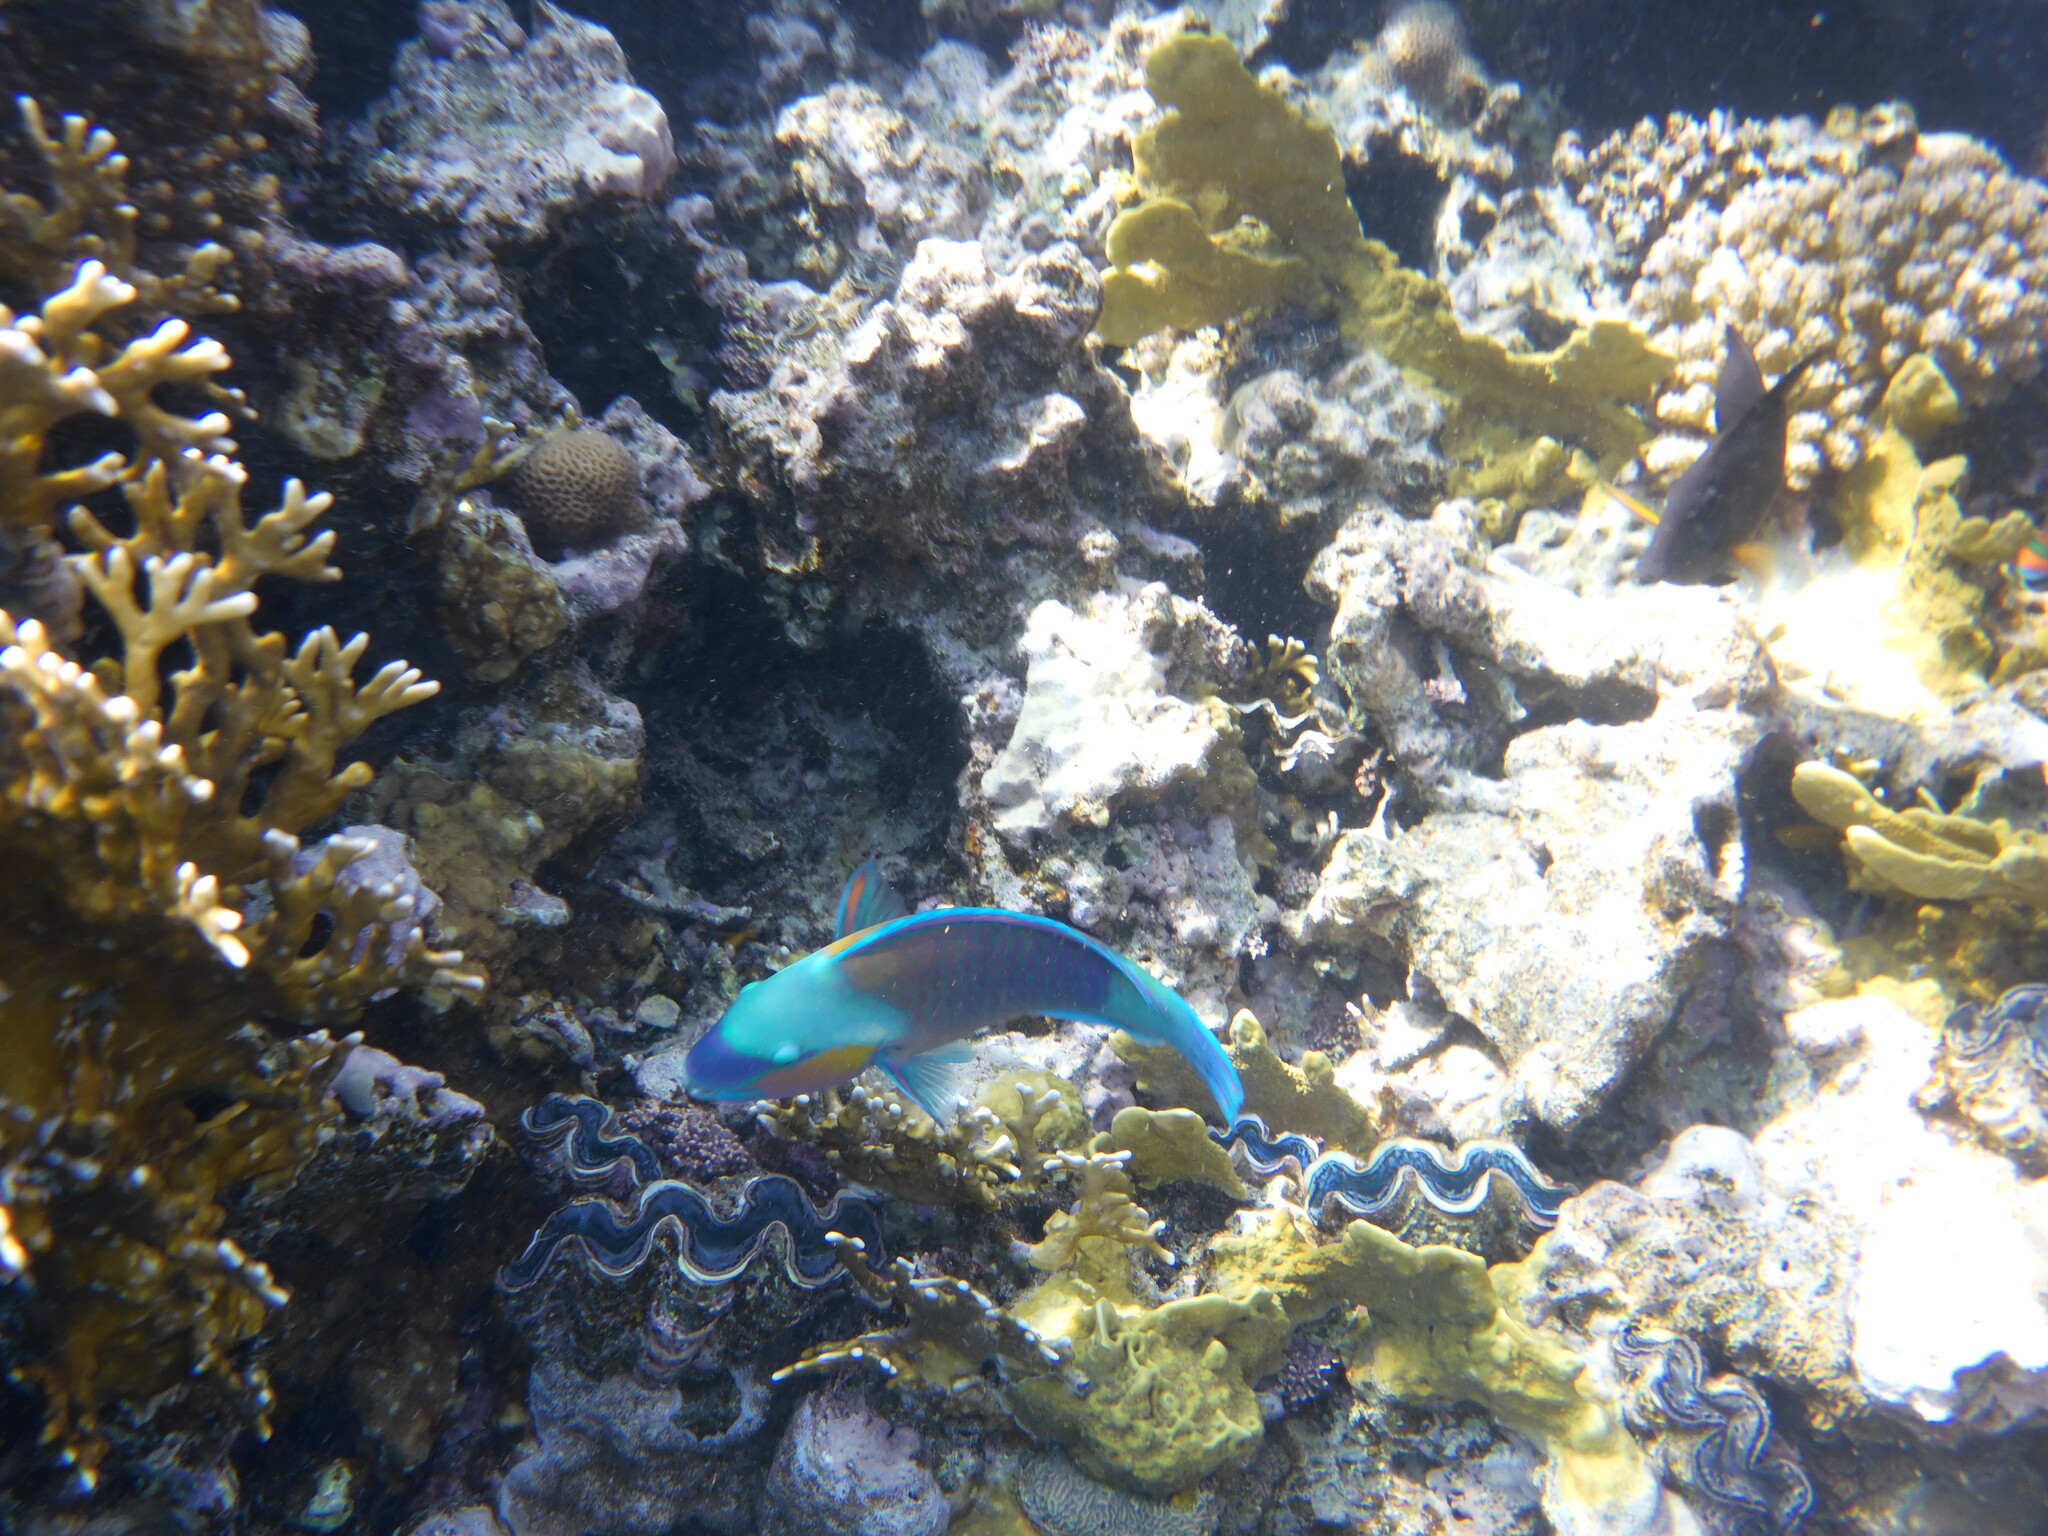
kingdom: Animalia
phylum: Chordata
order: Perciformes
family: Scaridae
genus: Chlorurus
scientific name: Chlorurus sordidus
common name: Bullethead parrotfish
